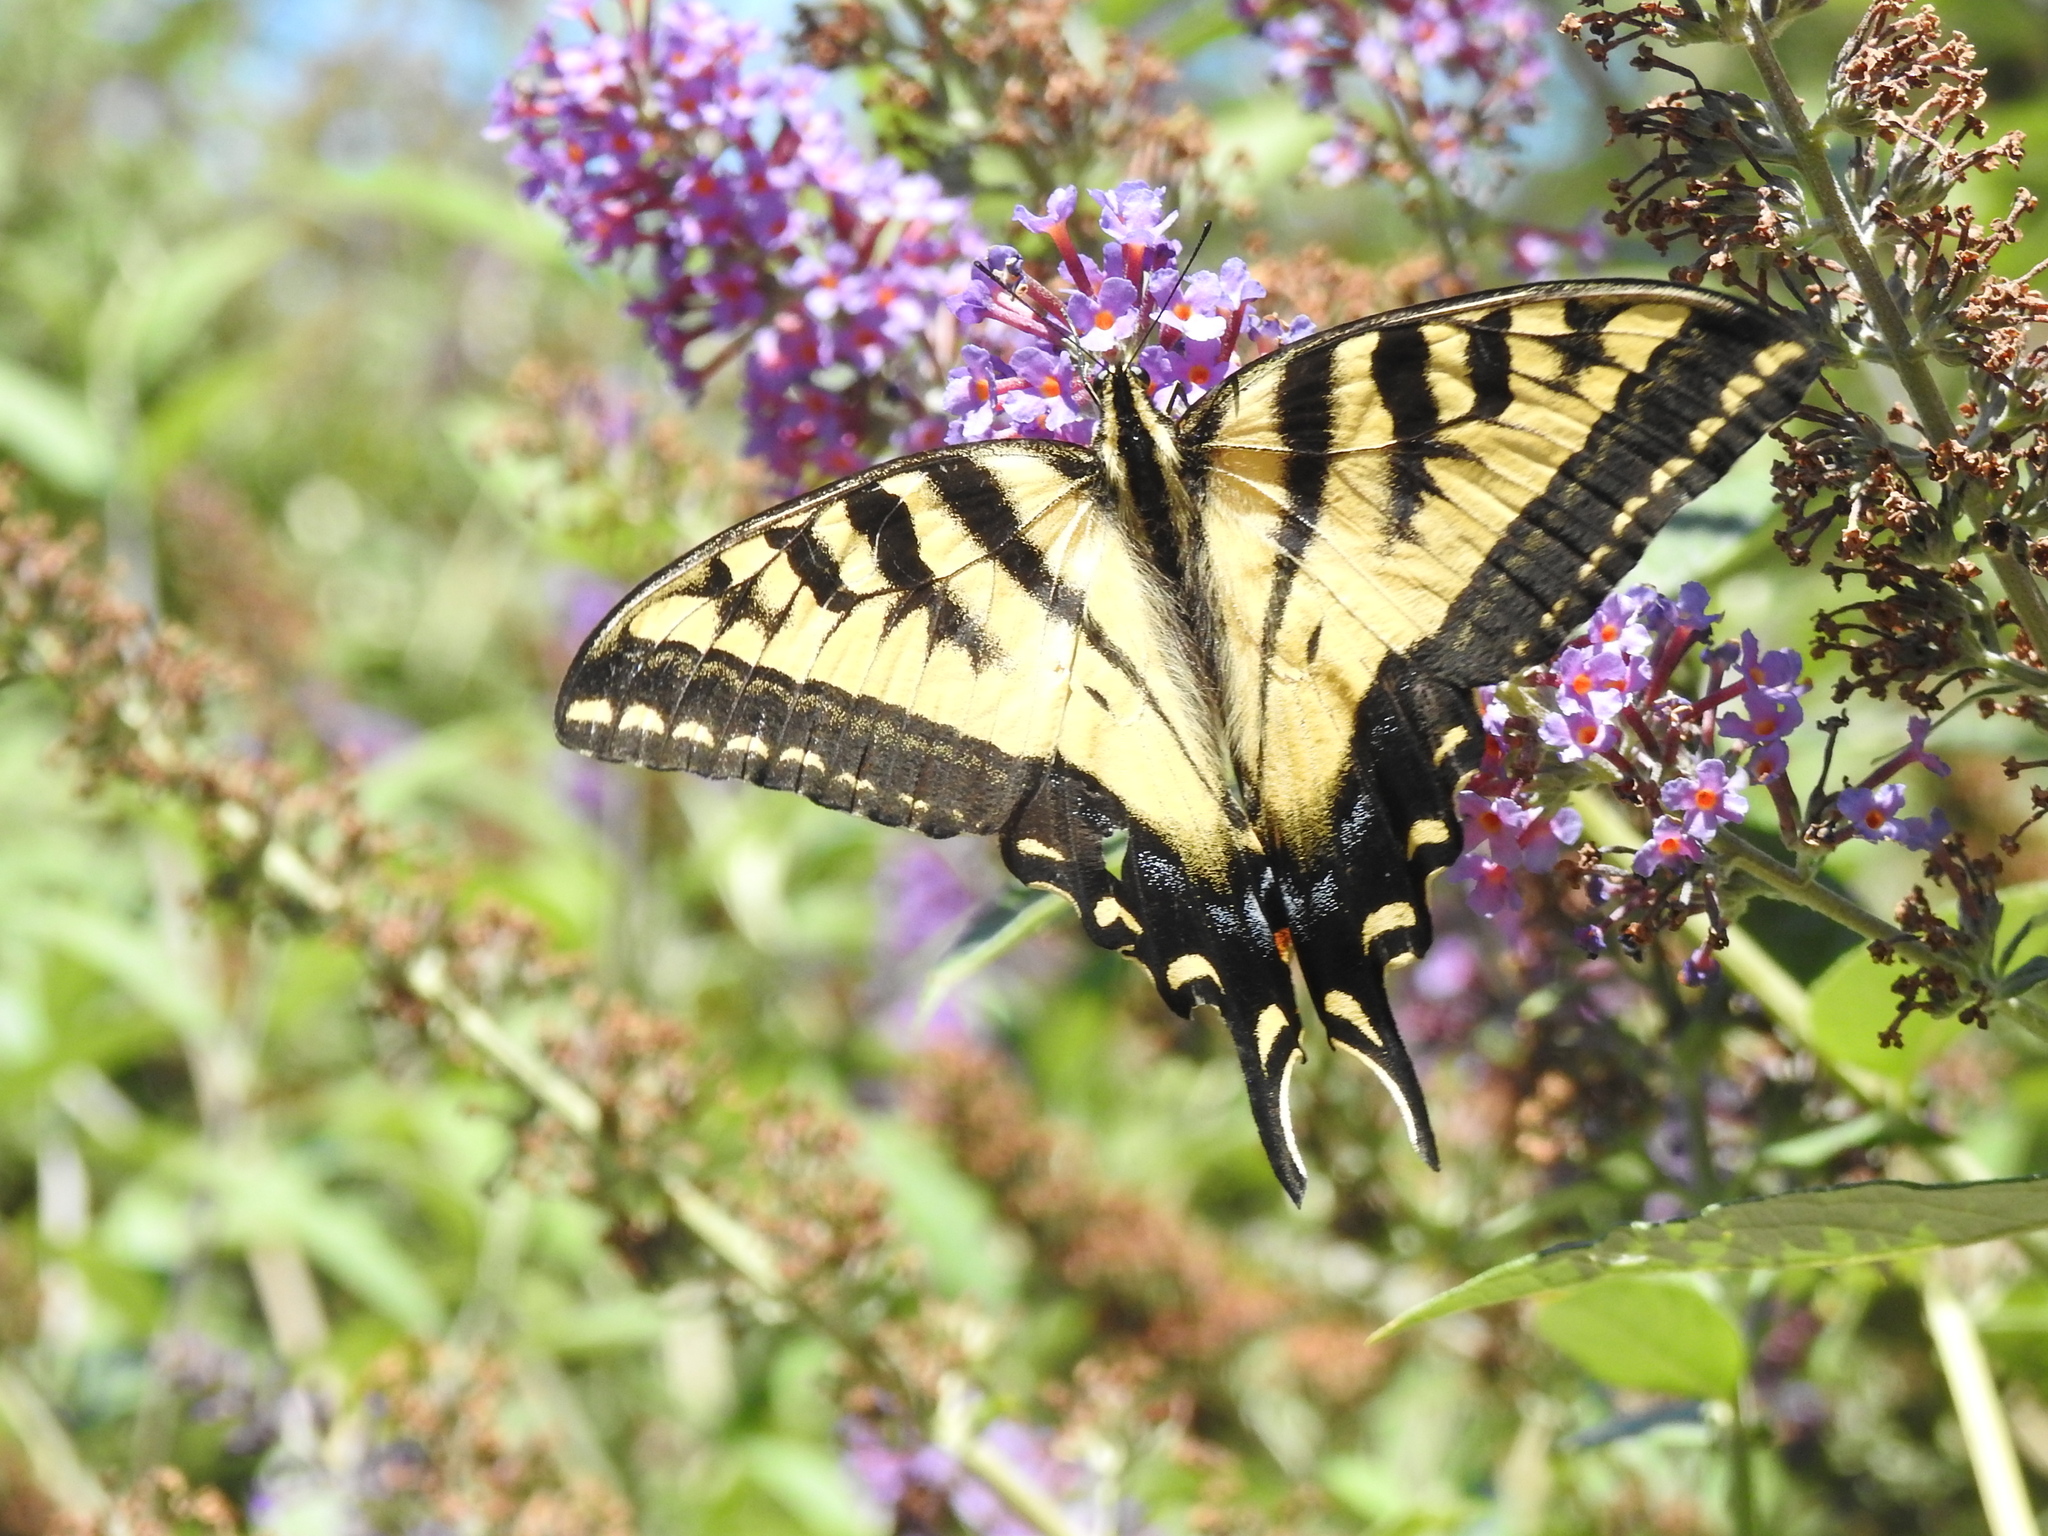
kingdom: Animalia
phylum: Arthropoda
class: Insecta
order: Lepidoptera
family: Papilionidae
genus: Papilio
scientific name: Papilio rutulus
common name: Western tiger swallowtail
